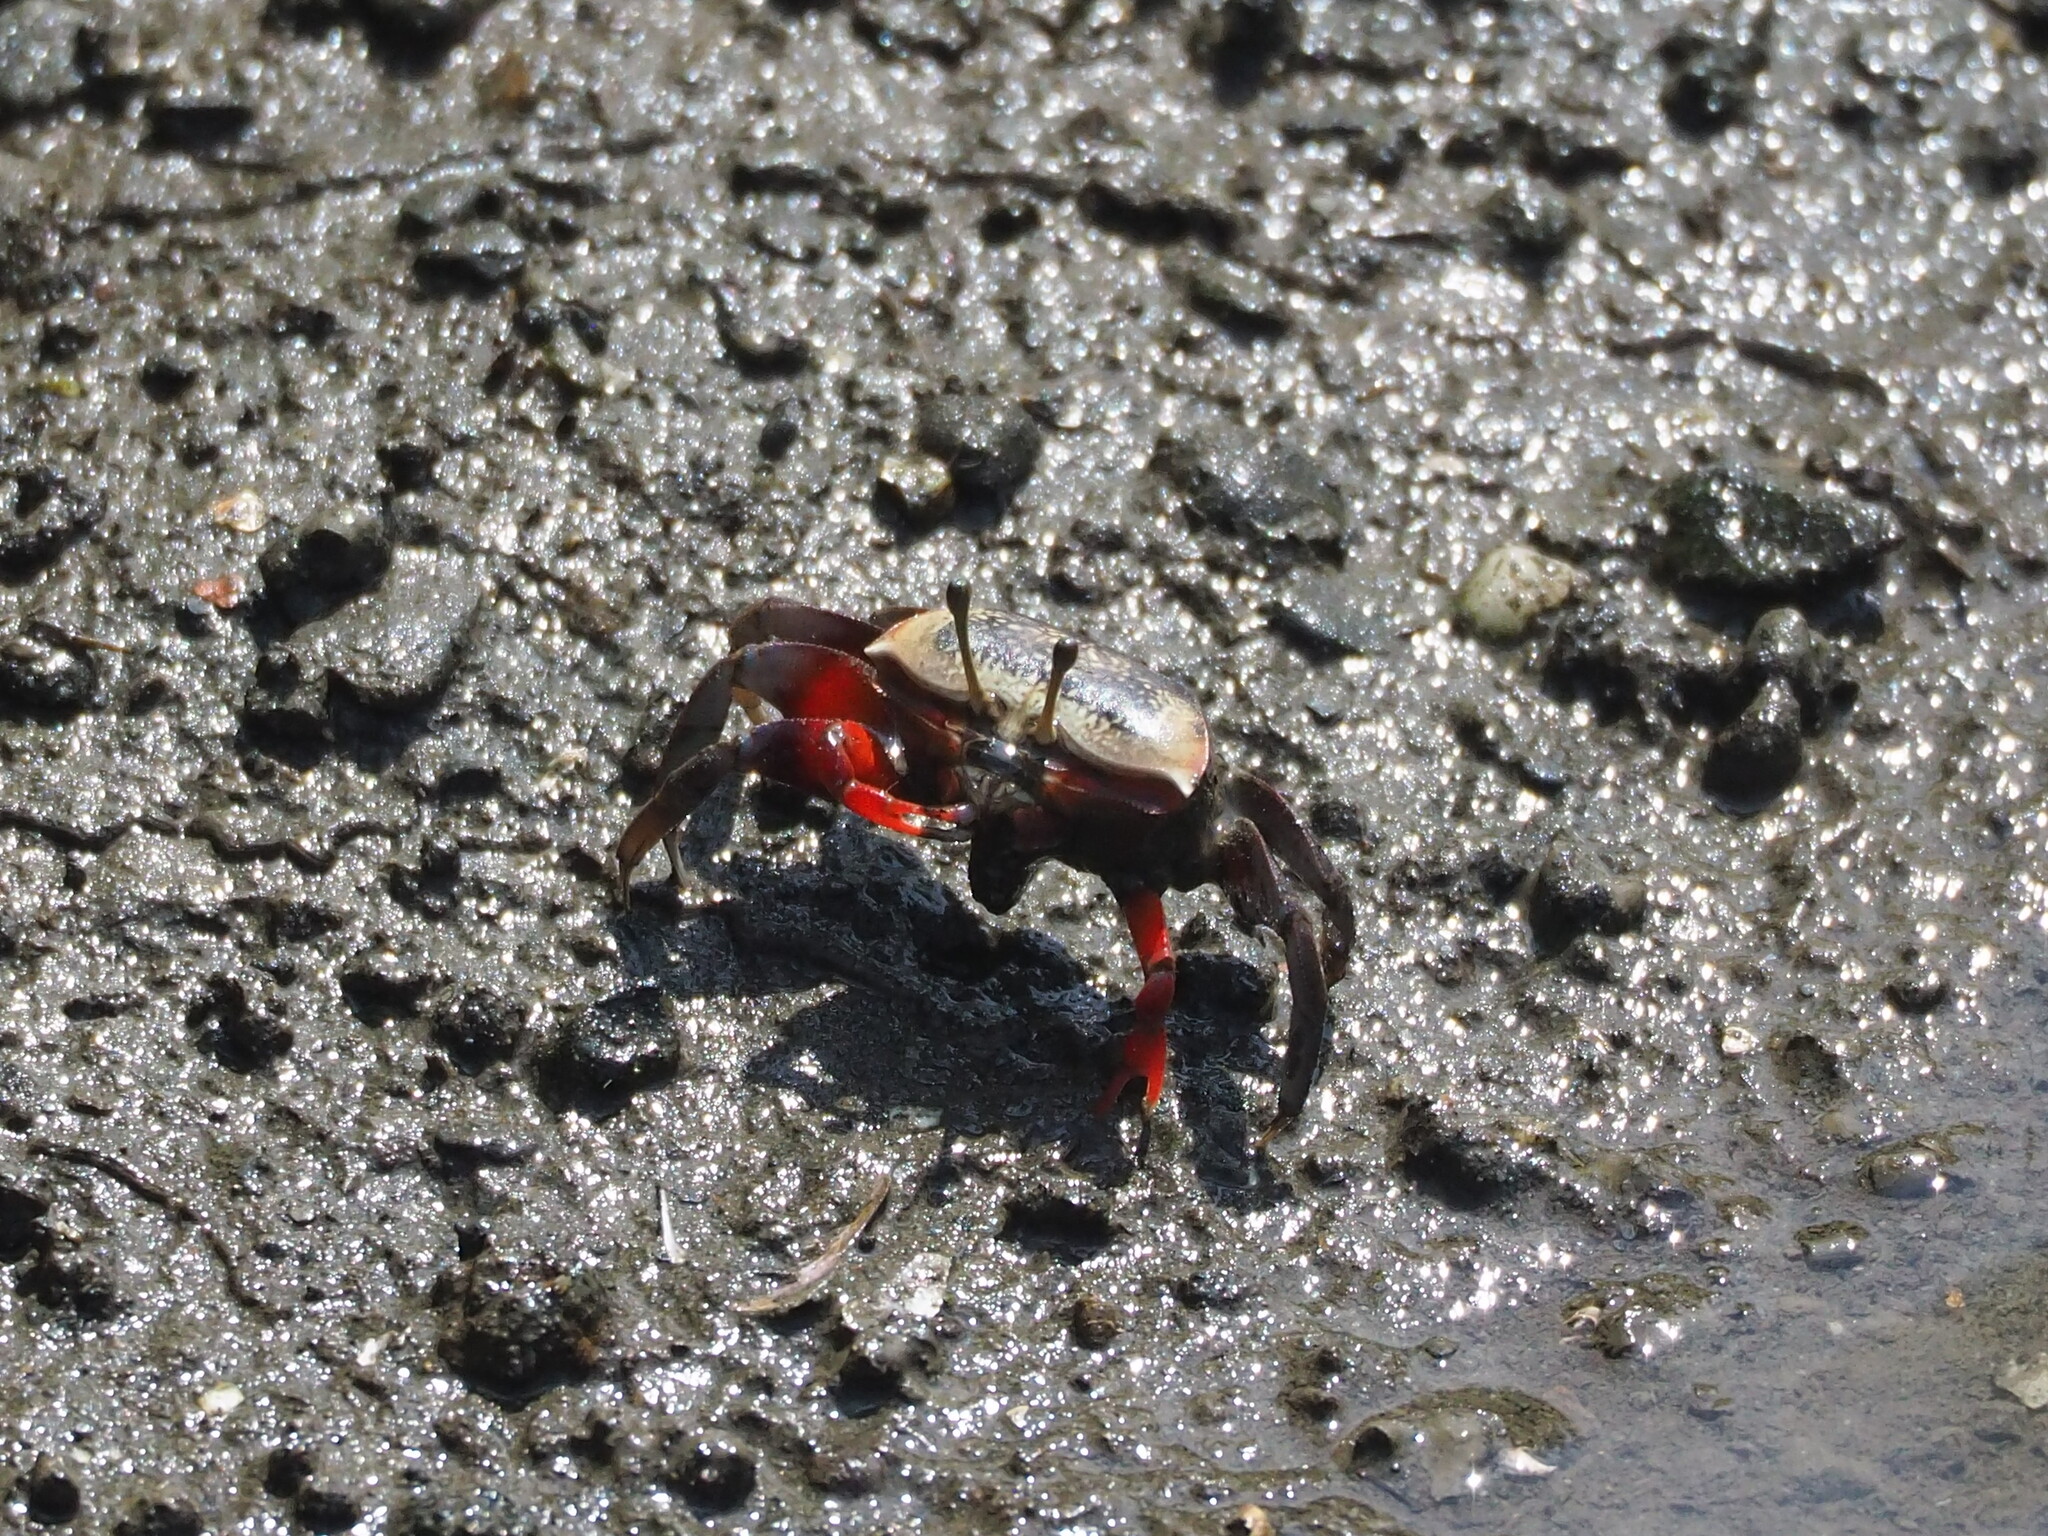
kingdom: Animalia
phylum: Arthropoda
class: Malacostraca
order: Decapoda
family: Ocypodidae
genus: Tubuca
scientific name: Tubuca arcuata
